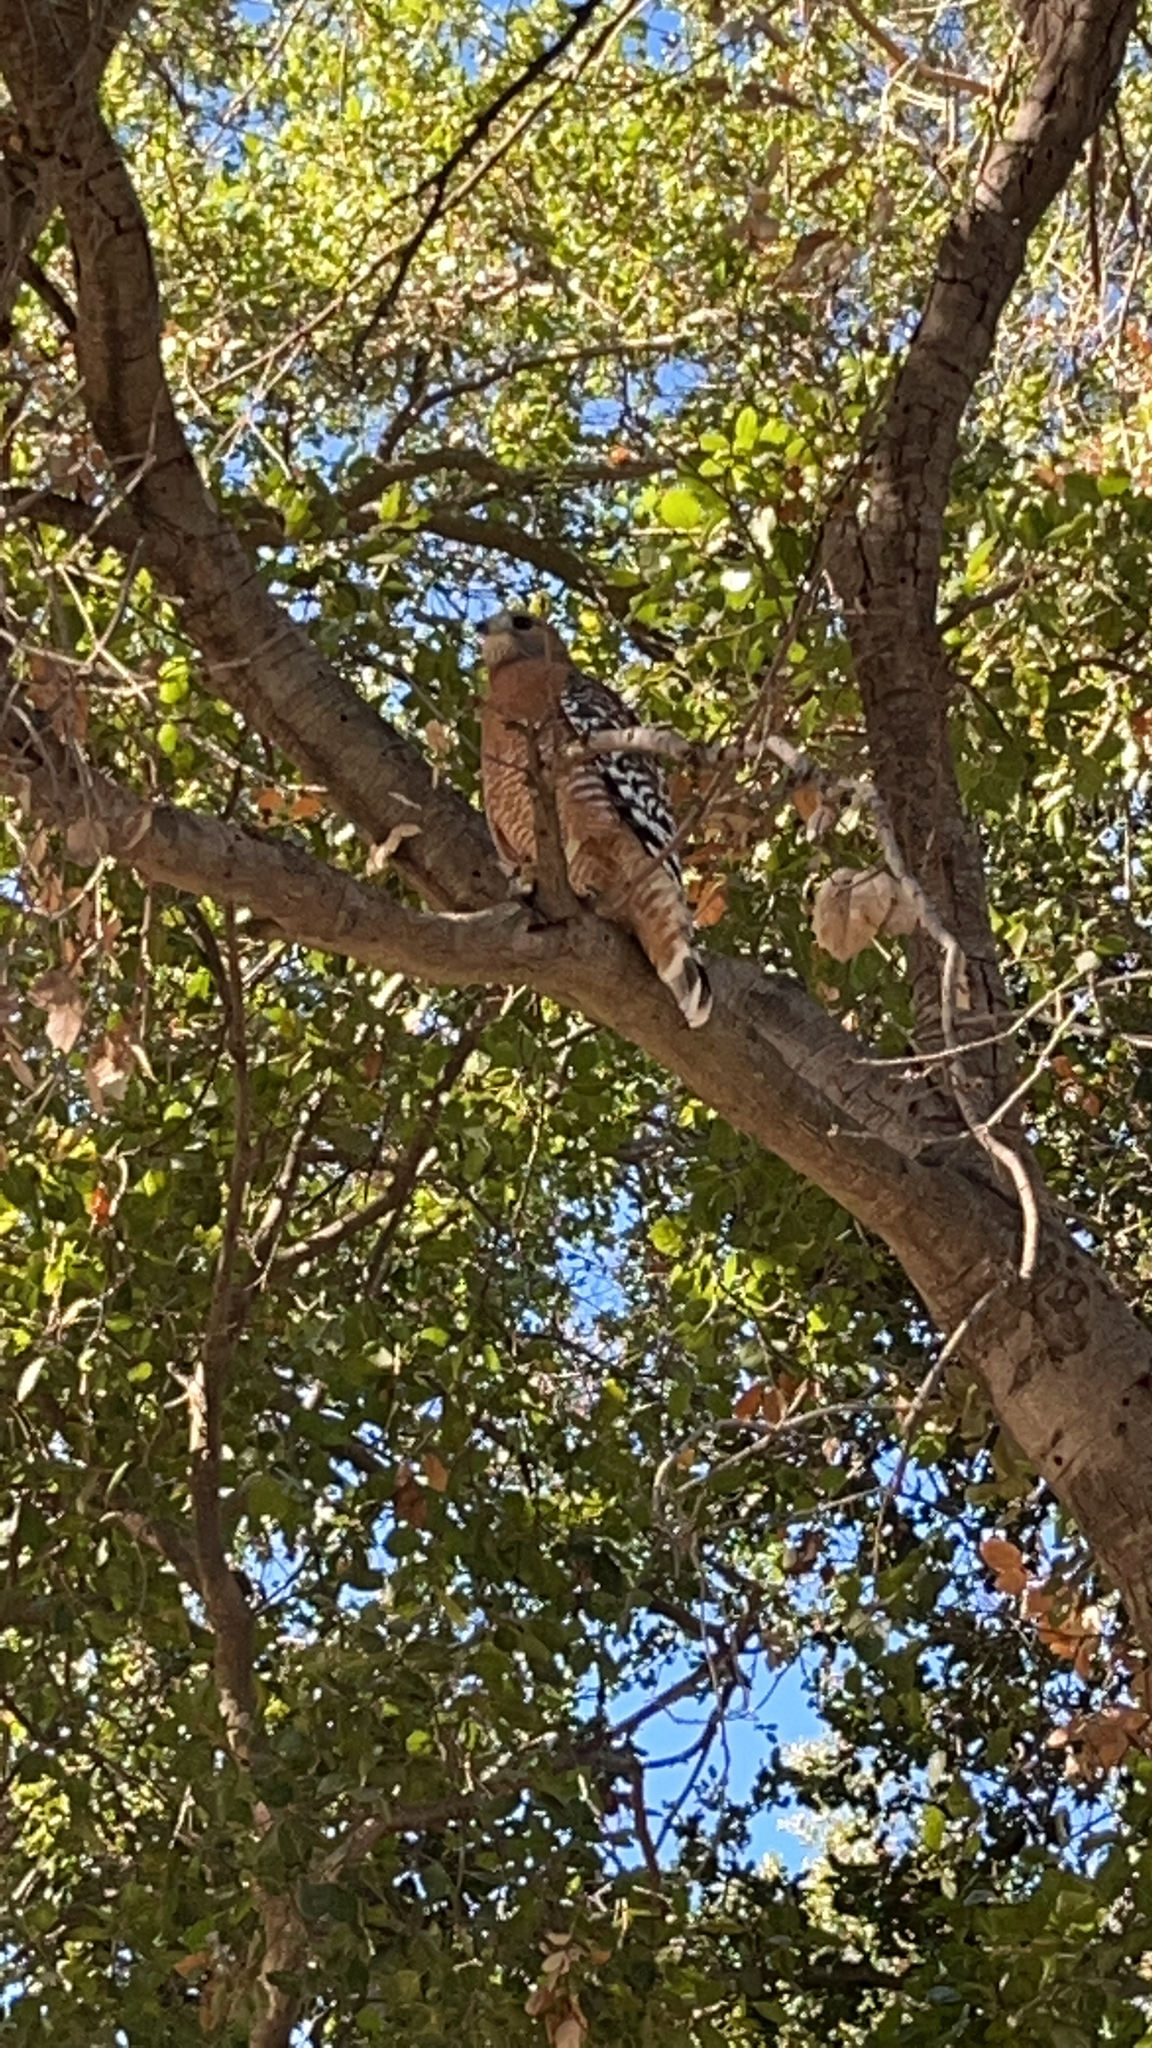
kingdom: Animalia
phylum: Chordata
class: Aves
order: Accipitriformes
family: Accipitridae
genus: Buteo
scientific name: Buteo lineatus
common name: Red-shouldered hawk
